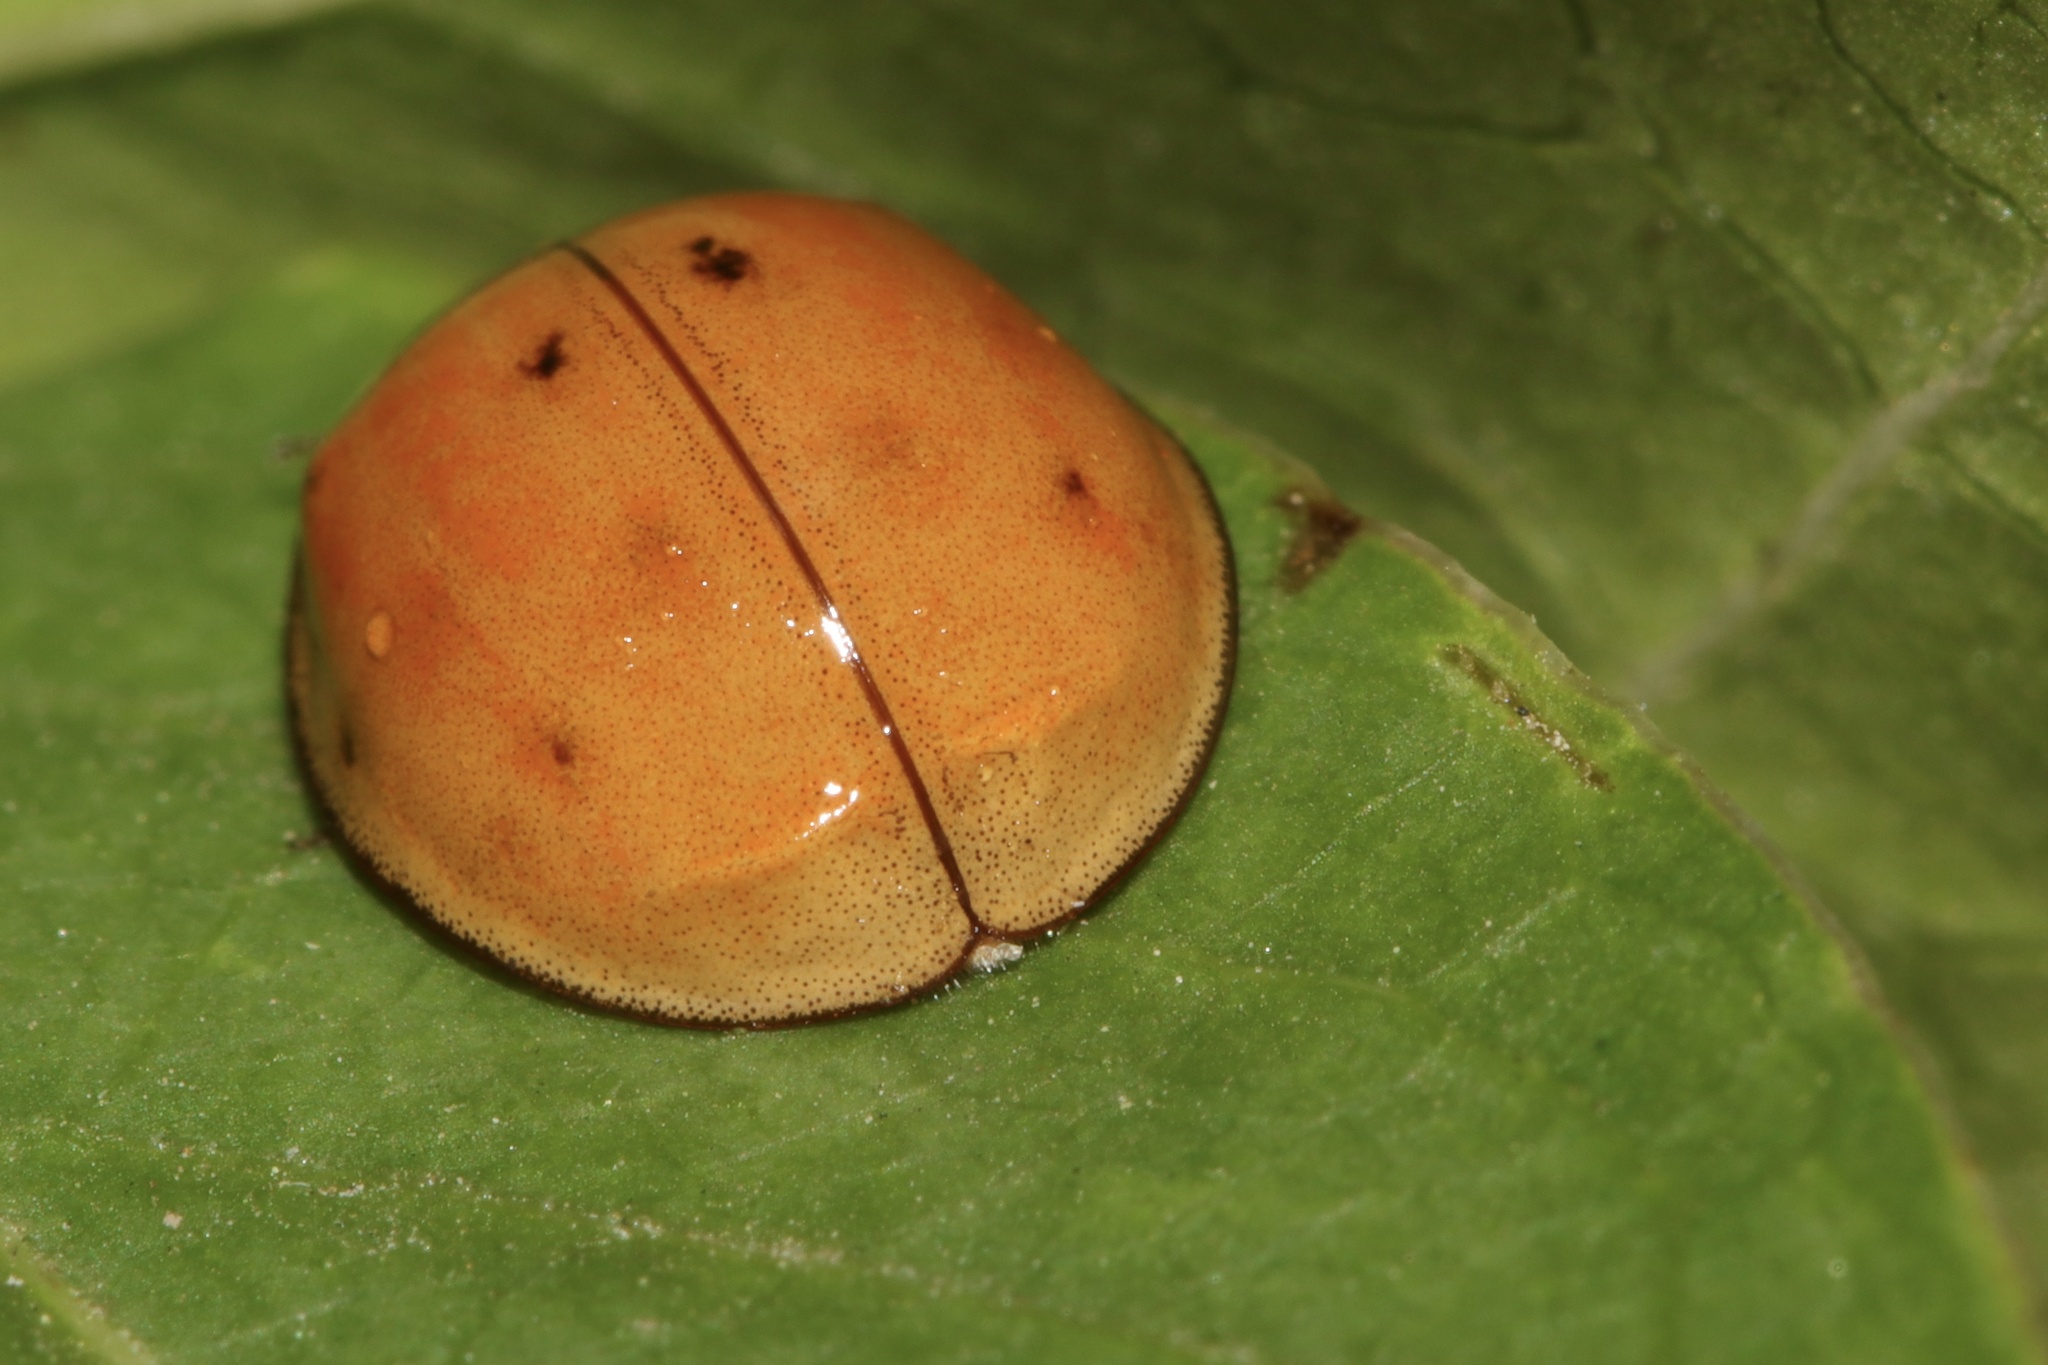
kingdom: Animalia
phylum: Arthropoda
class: Insecta
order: Coleoptera
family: Coccinellidae
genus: Harmonia
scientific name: Harmonia axyridis
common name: Harlequin ladybird
